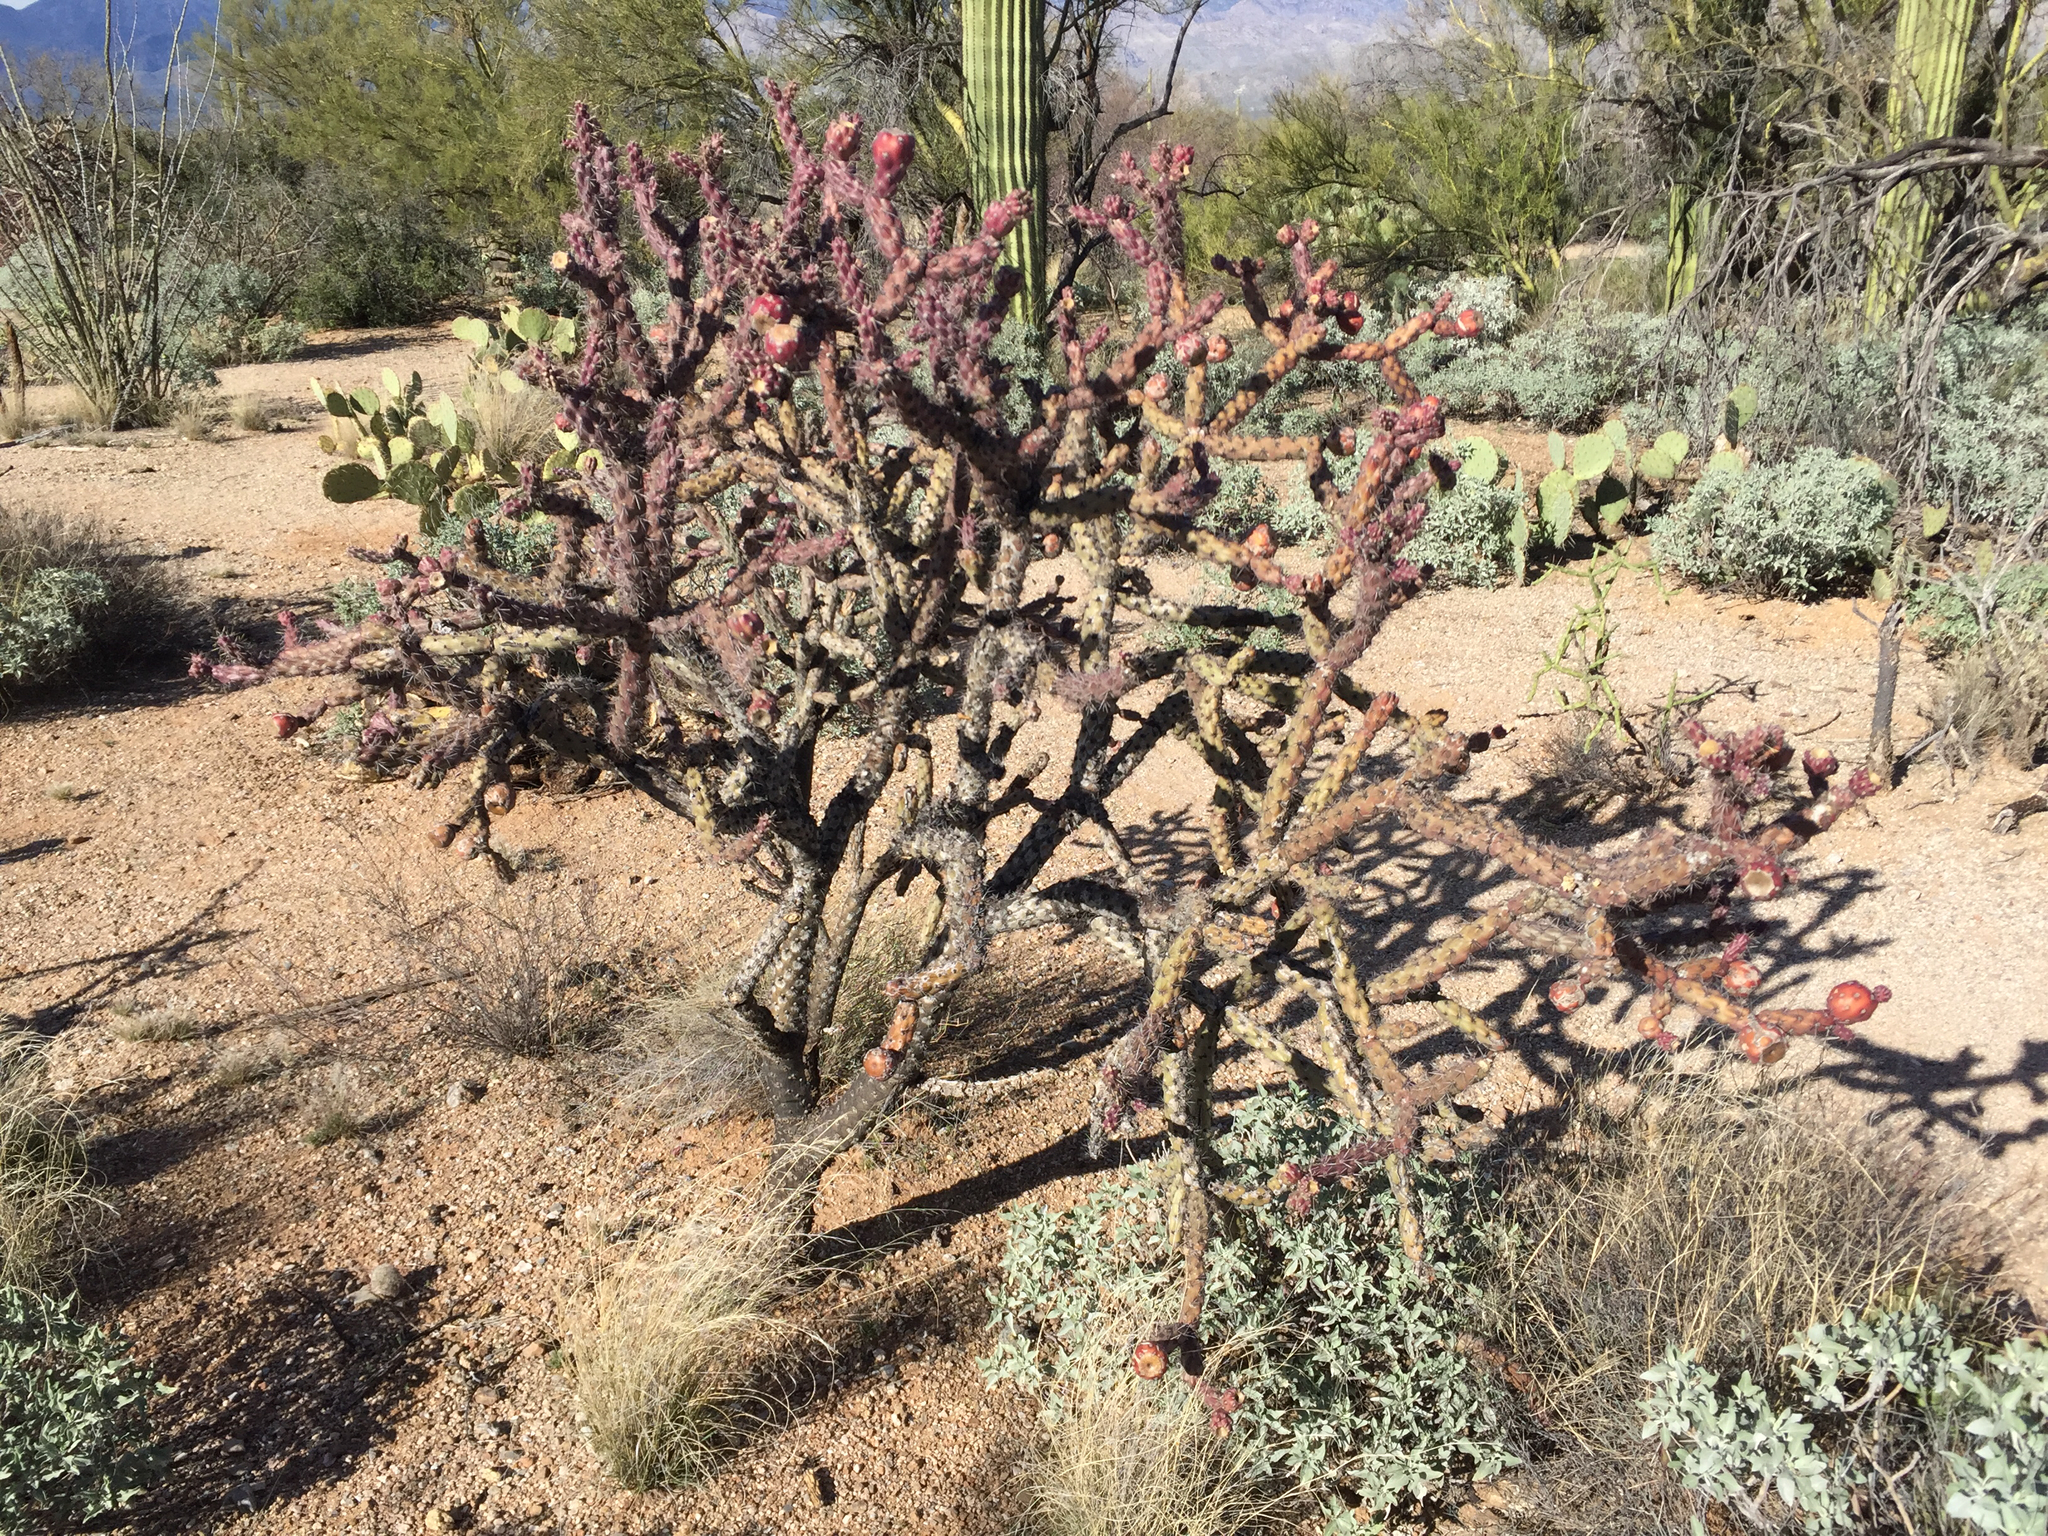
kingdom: Plantae
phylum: Tracheophyta
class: Magnoliopsida
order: Caryophyllales
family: Cactaceae
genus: Cylindropuntia
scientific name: Cylindropuntia thurberi
